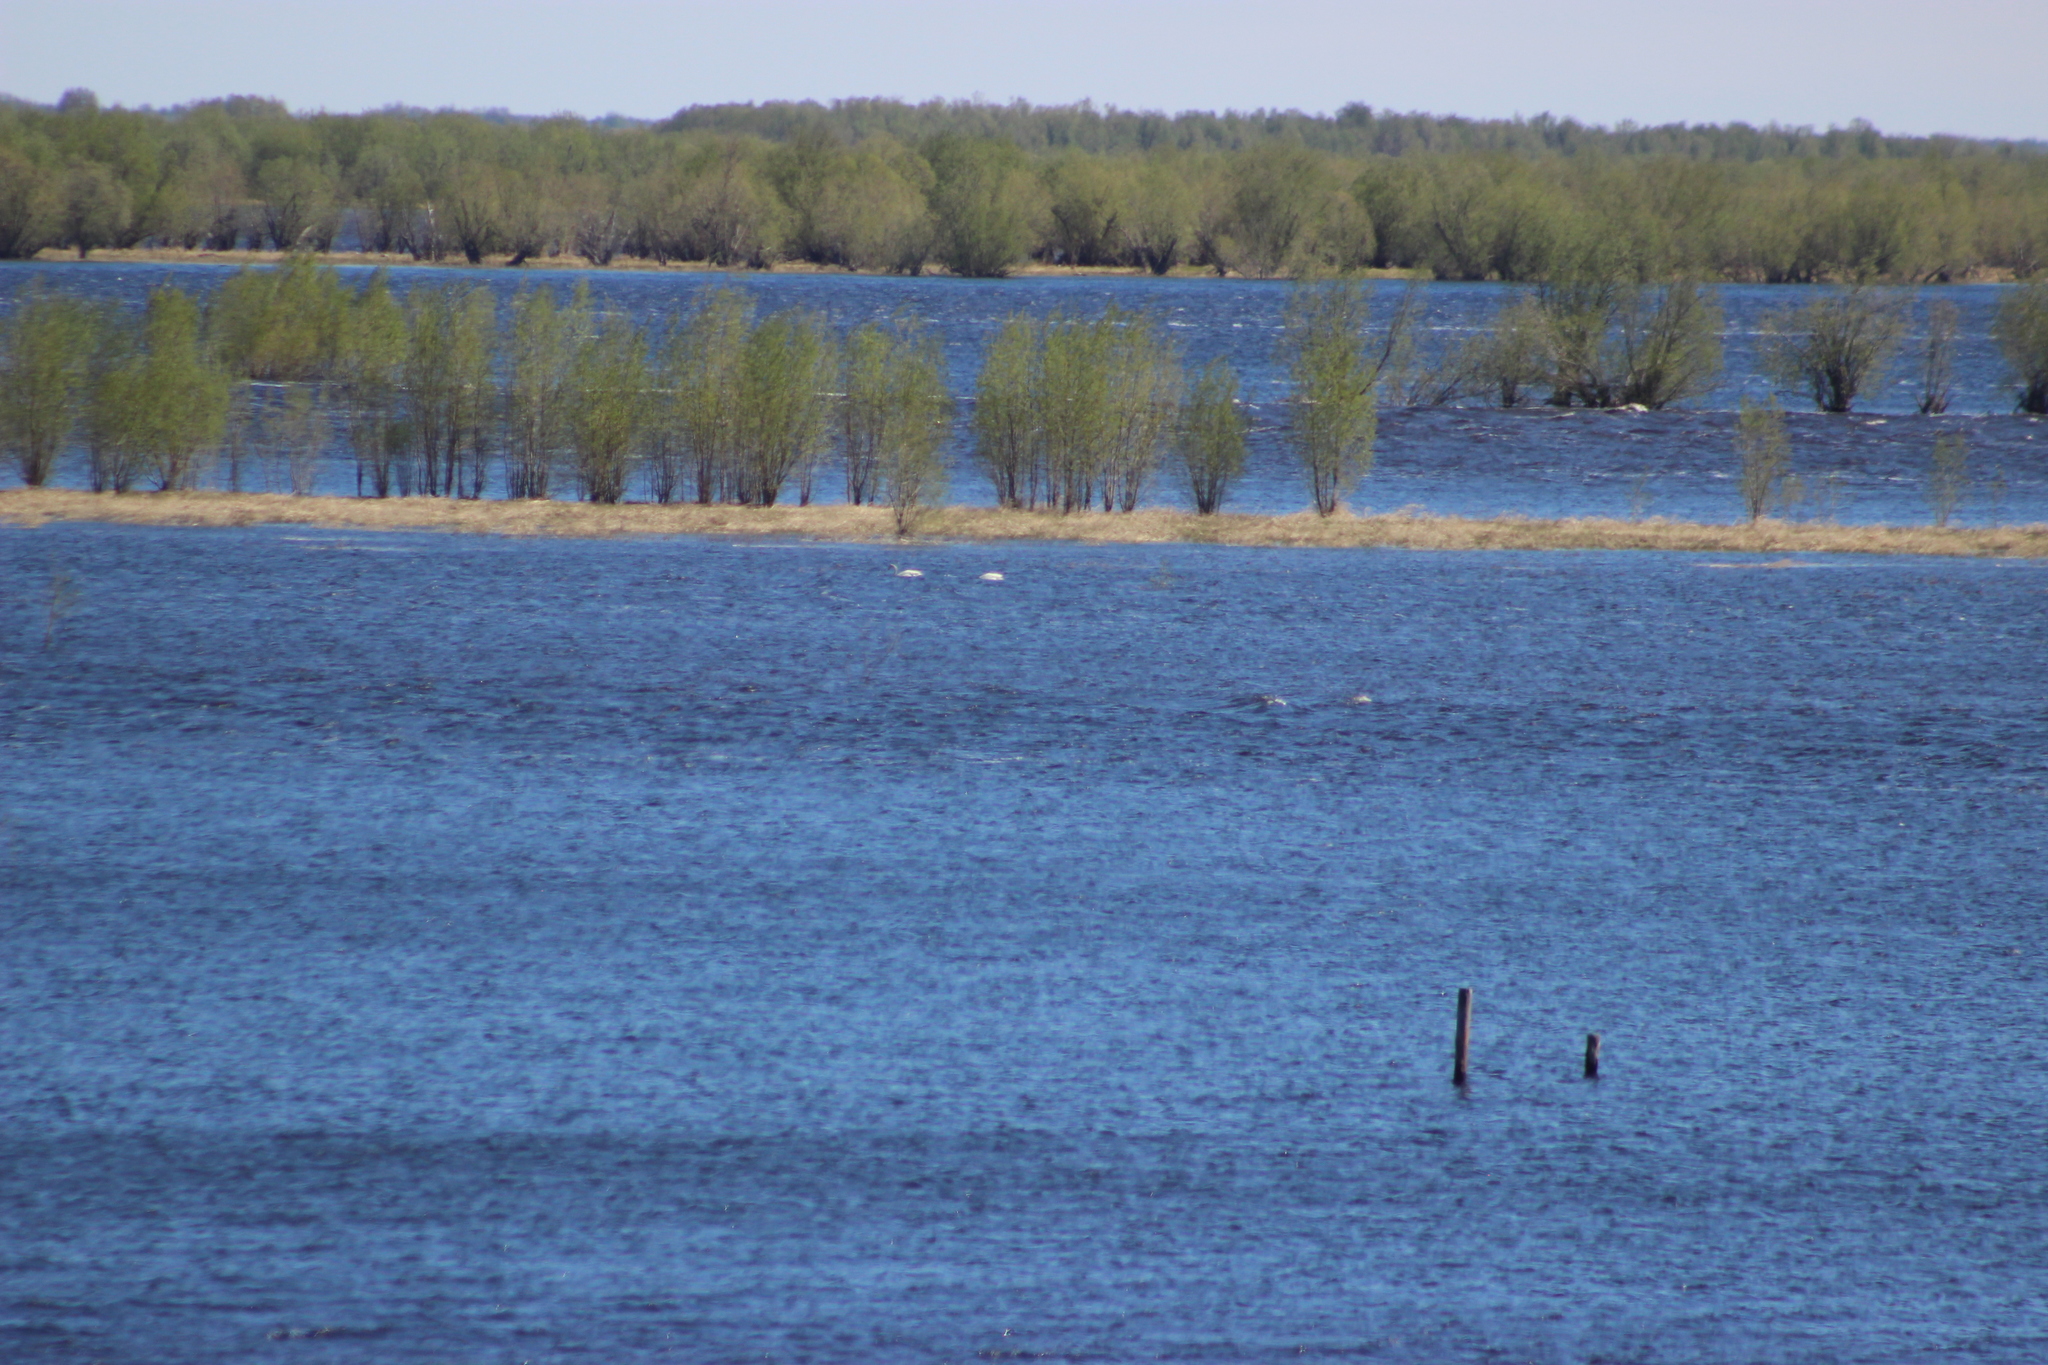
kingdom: Animalia
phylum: Chordata
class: Aves
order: Anseriformes
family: Anatidae
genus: Cygnus
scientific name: Cygnus cygnus
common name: Whooper swan
